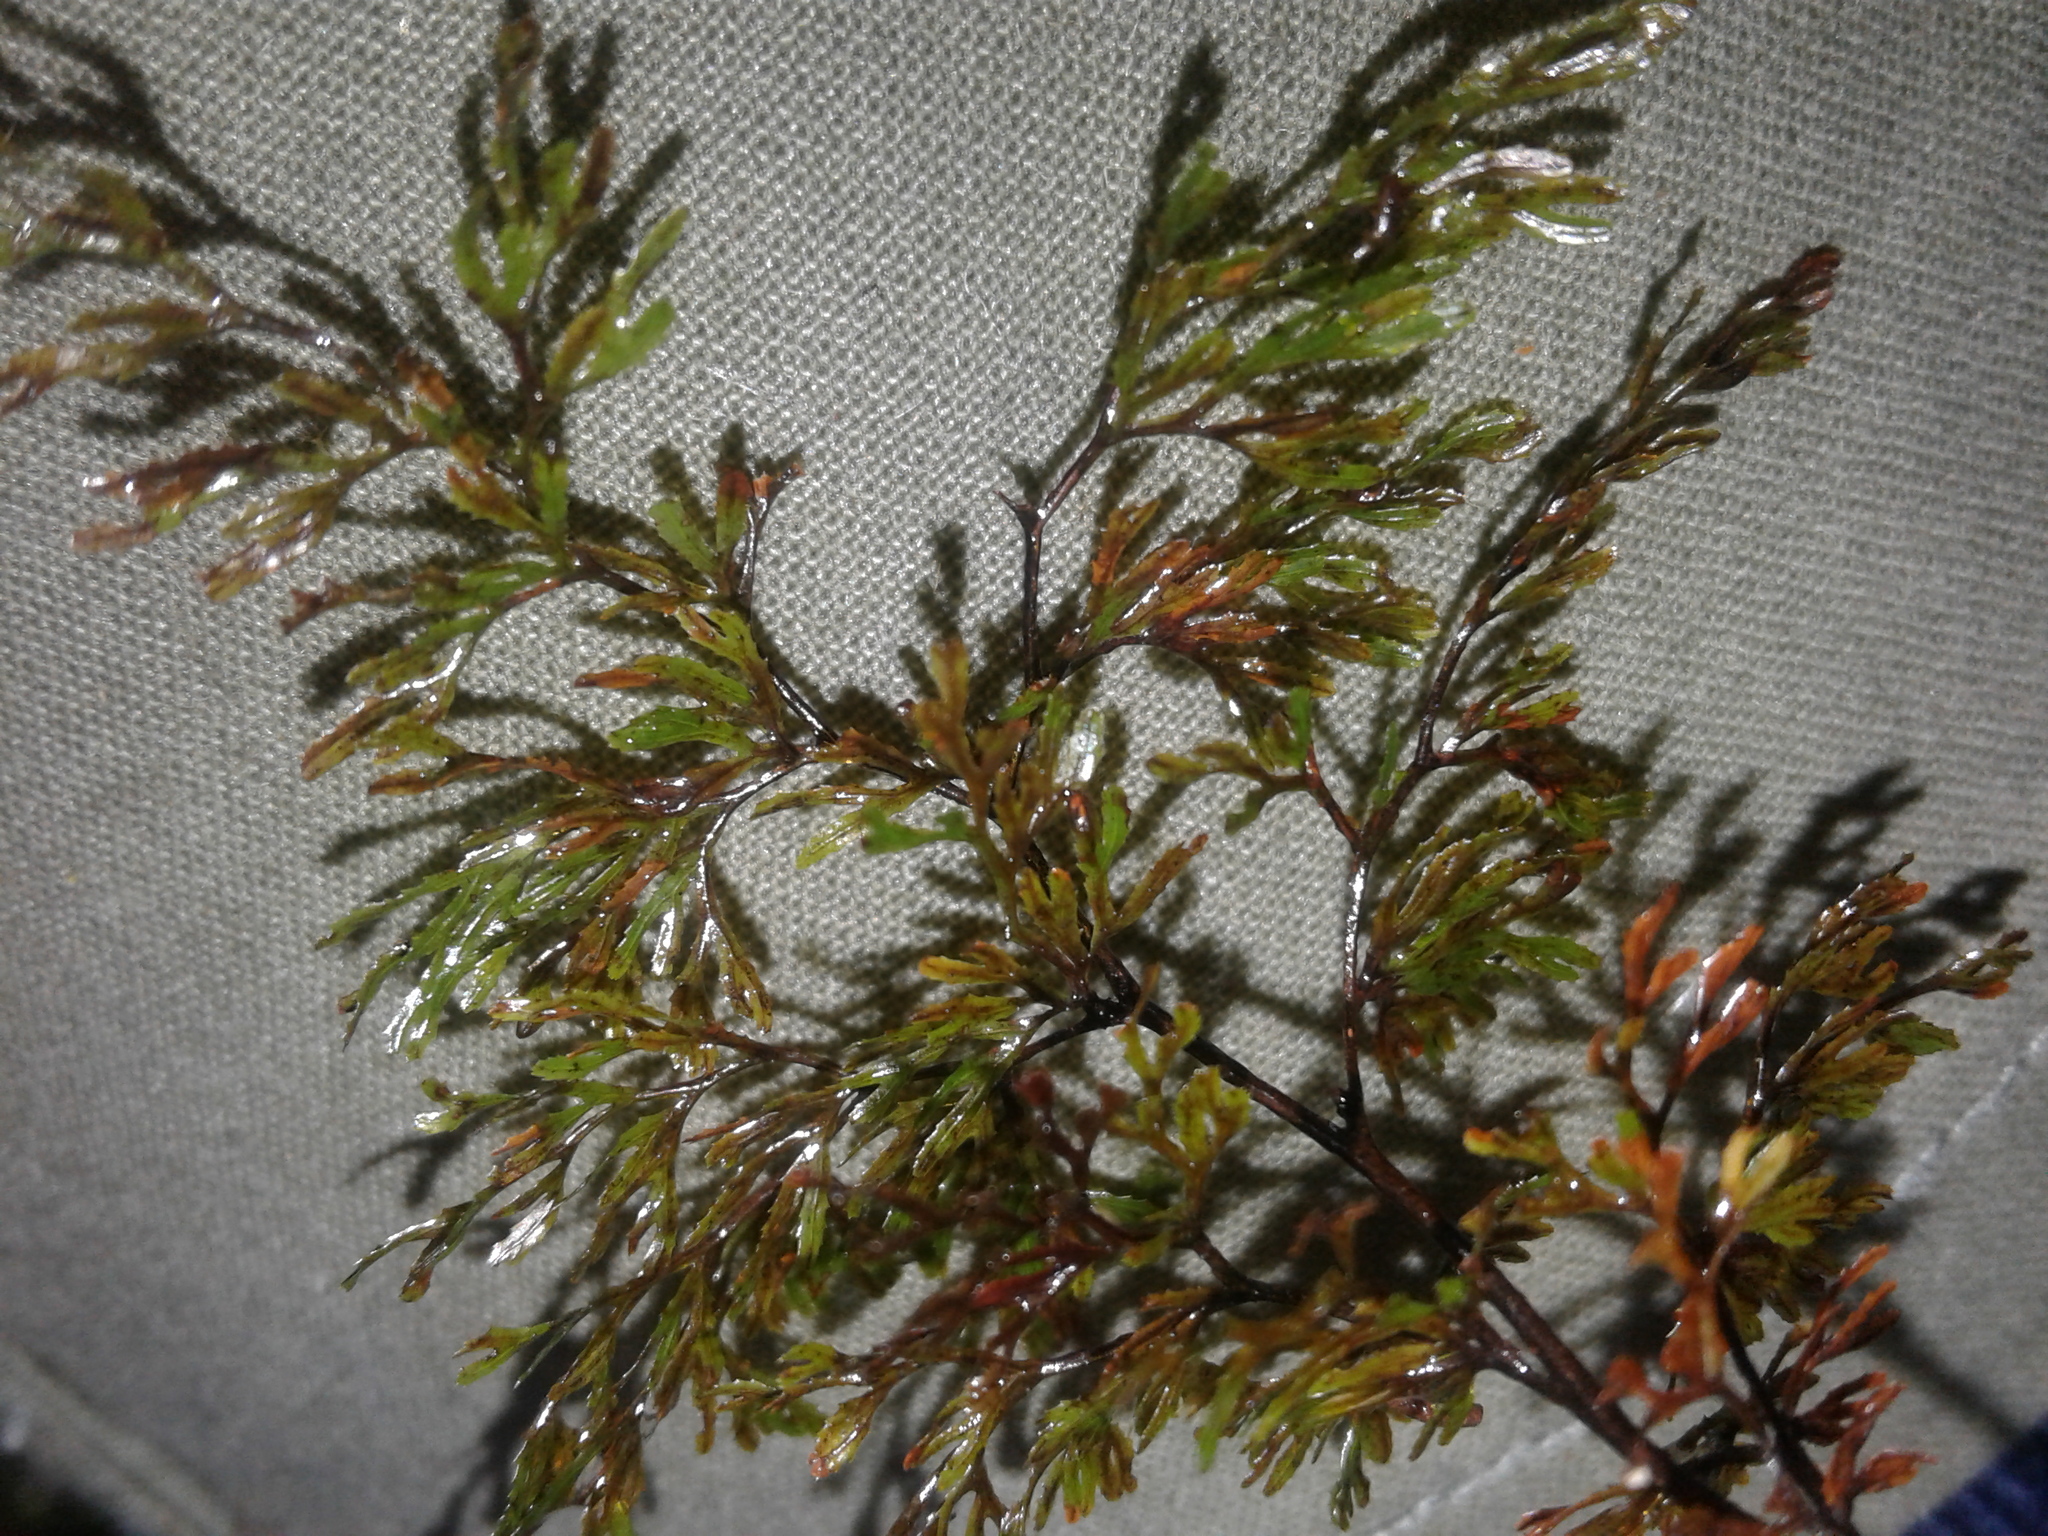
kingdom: Plantae
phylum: Tracheophyta
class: Polypodiopsida
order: Hymenophyllales
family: Hymenophyllaceae
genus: Hymenophyllum
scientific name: Hymenophyllum multifidum
